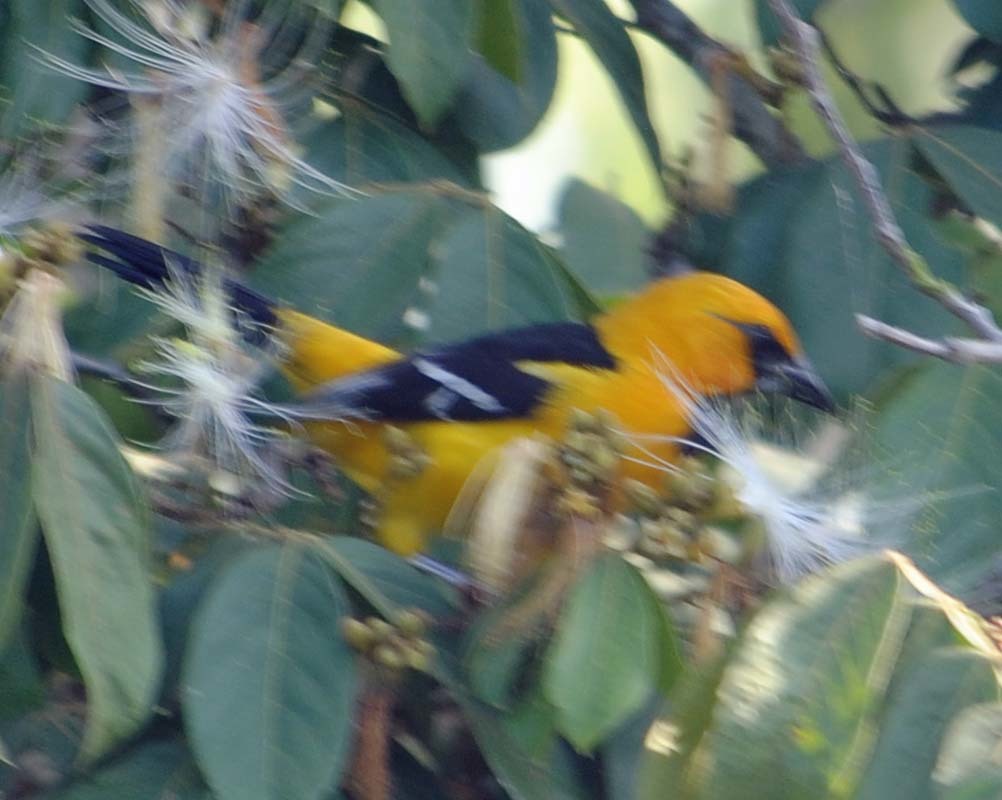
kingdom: Animalia
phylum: Chordata
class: Aves
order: Passeriformes
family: Icteridae
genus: Icterus
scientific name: Icterus gularis
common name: Altamira oriole
